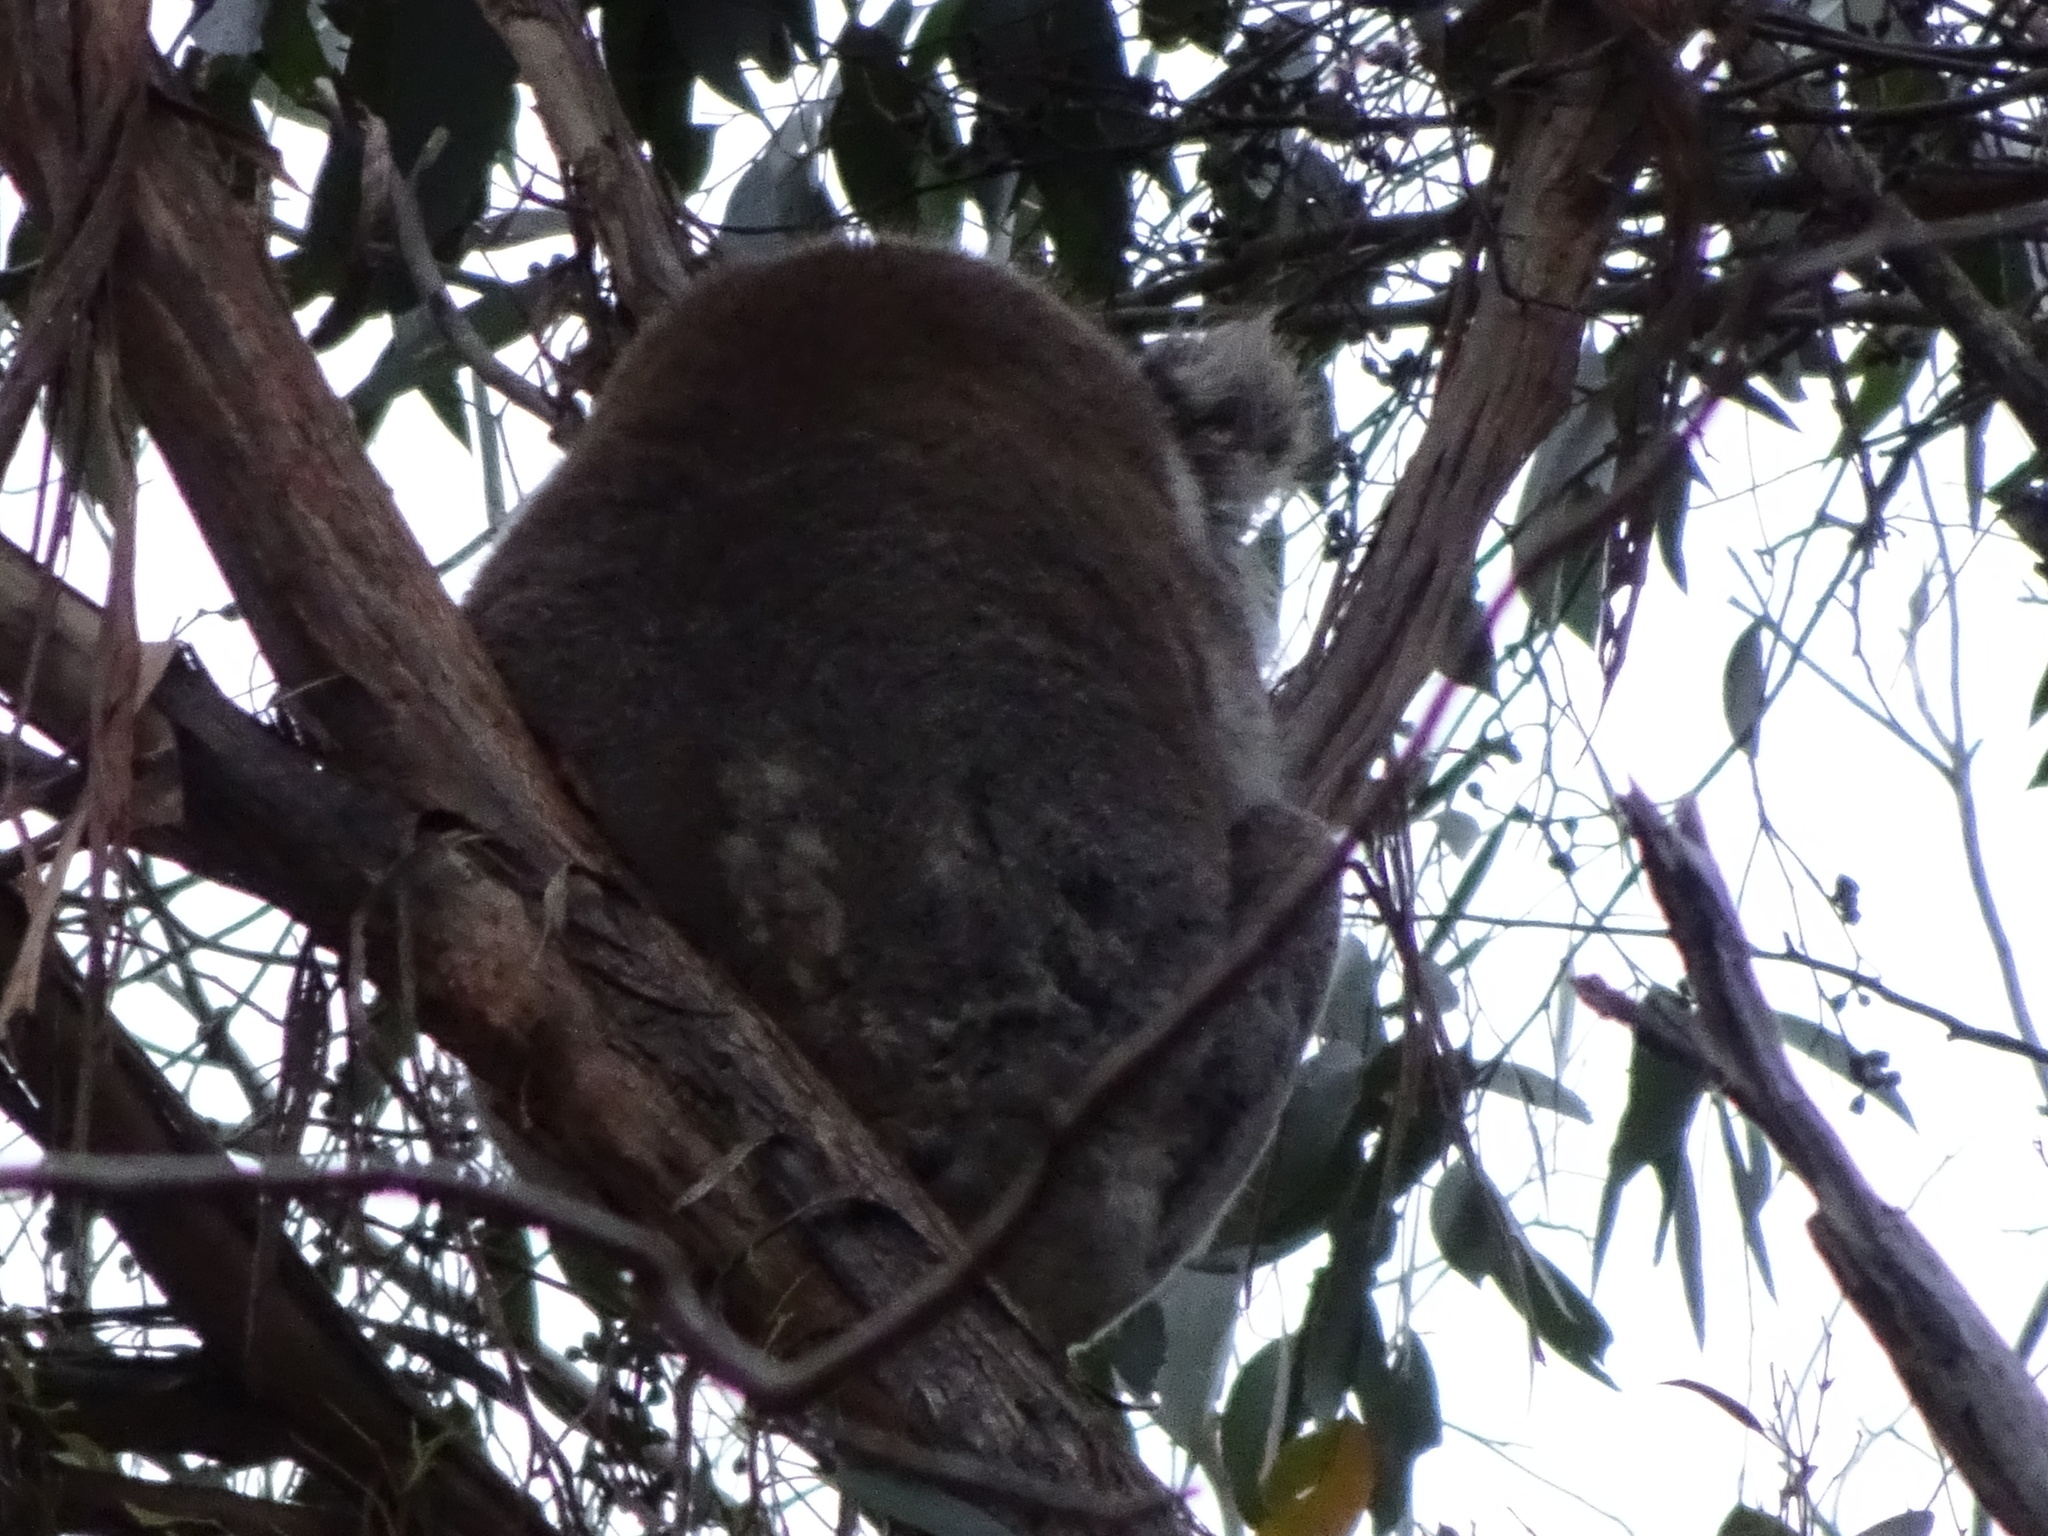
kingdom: Animalia
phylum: Chordata
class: Mammalia
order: Diprotodontia
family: Phascolarctidae
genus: Phascolarctos
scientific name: Phascolarctos cinereus
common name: Koala
